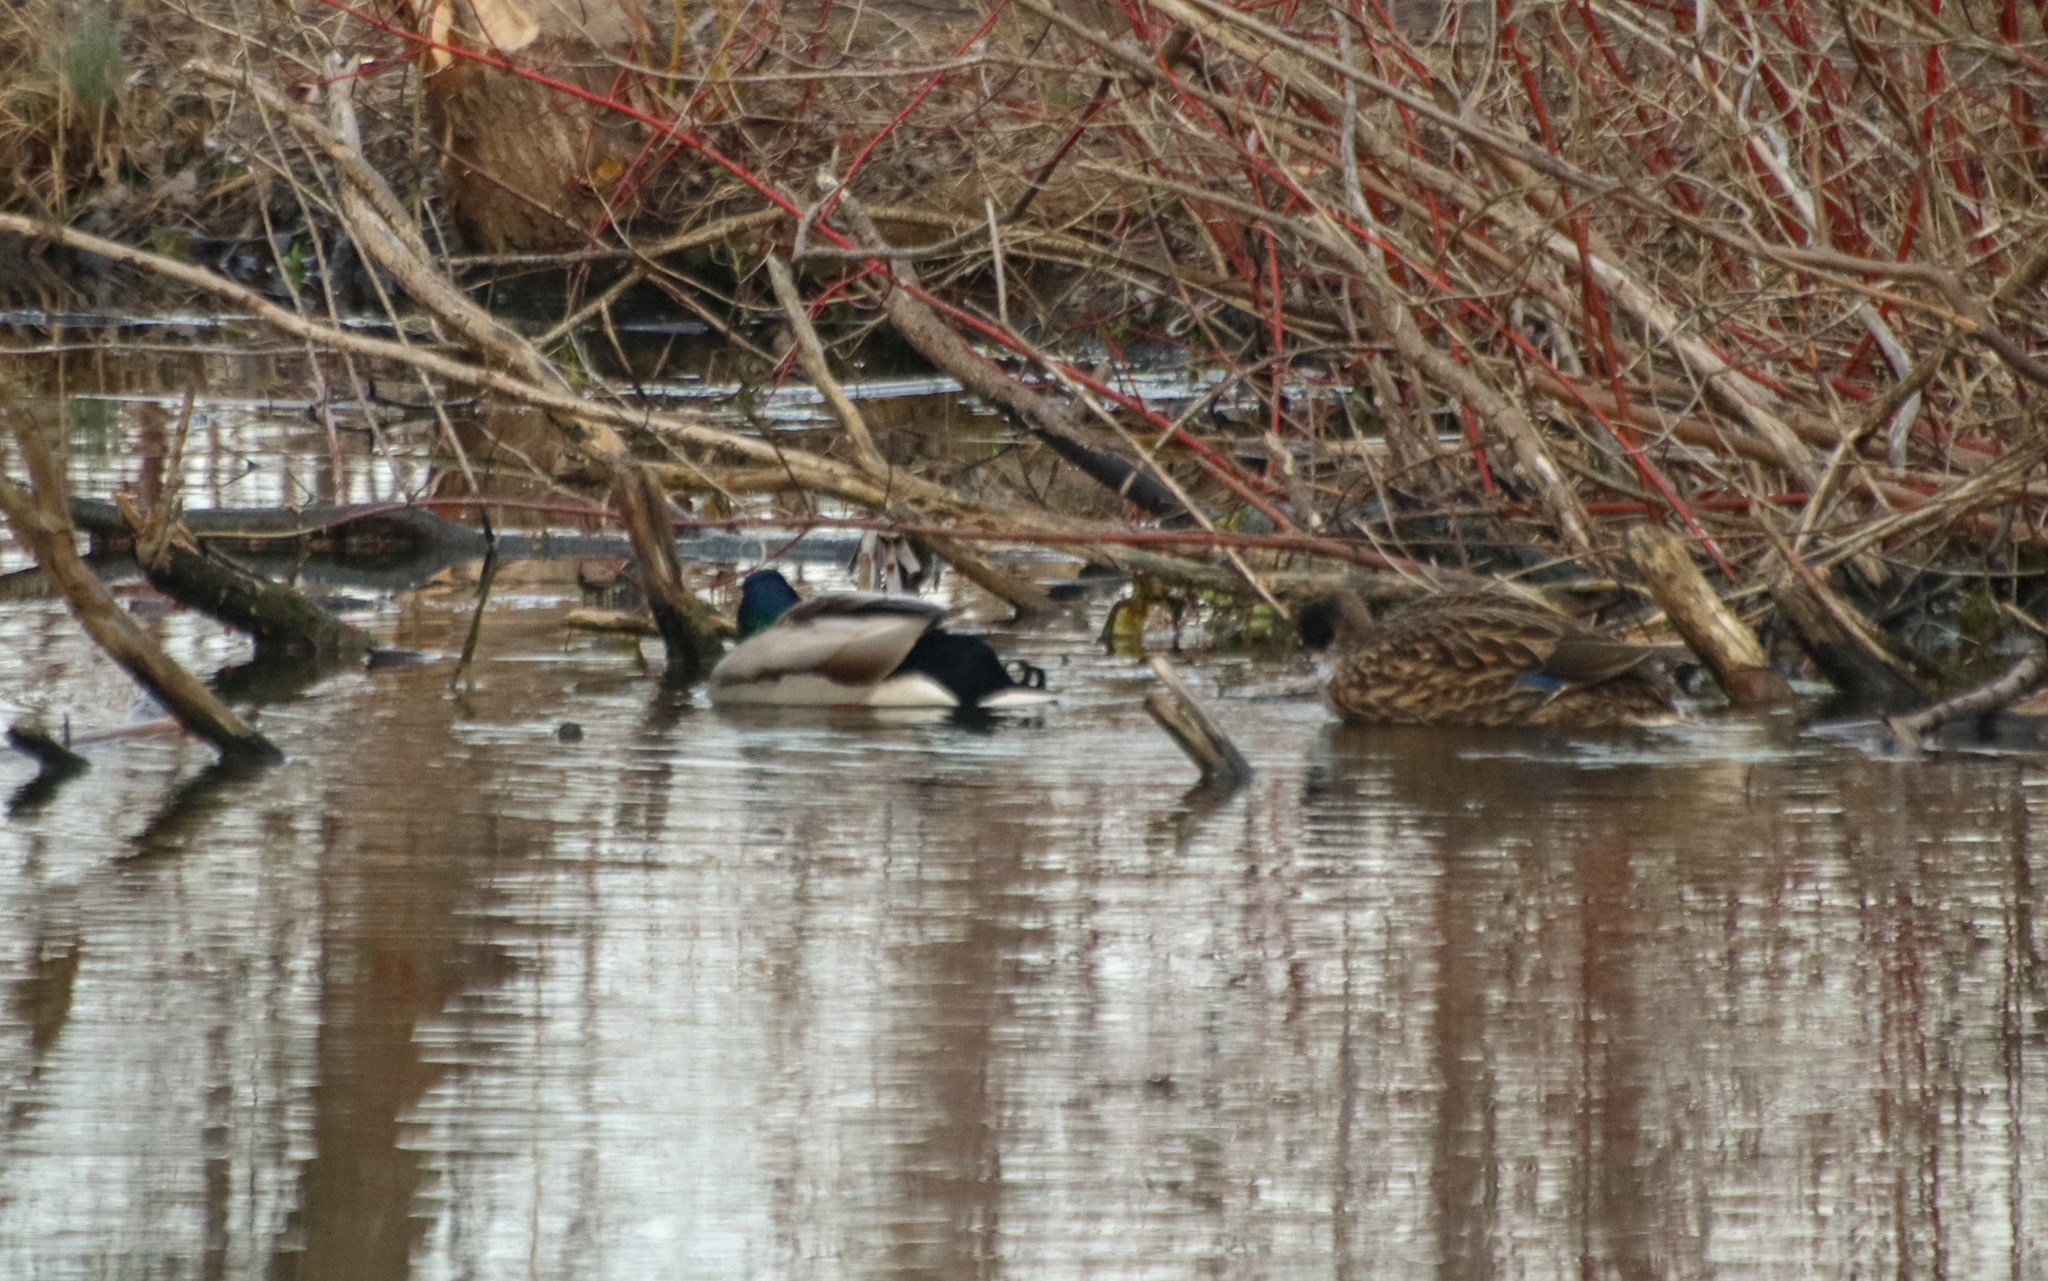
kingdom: Animalia
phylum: Chordata
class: Aves
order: Anseriformes
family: Anatidae
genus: Anas
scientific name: Anas platyrhynchos
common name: Mallard
